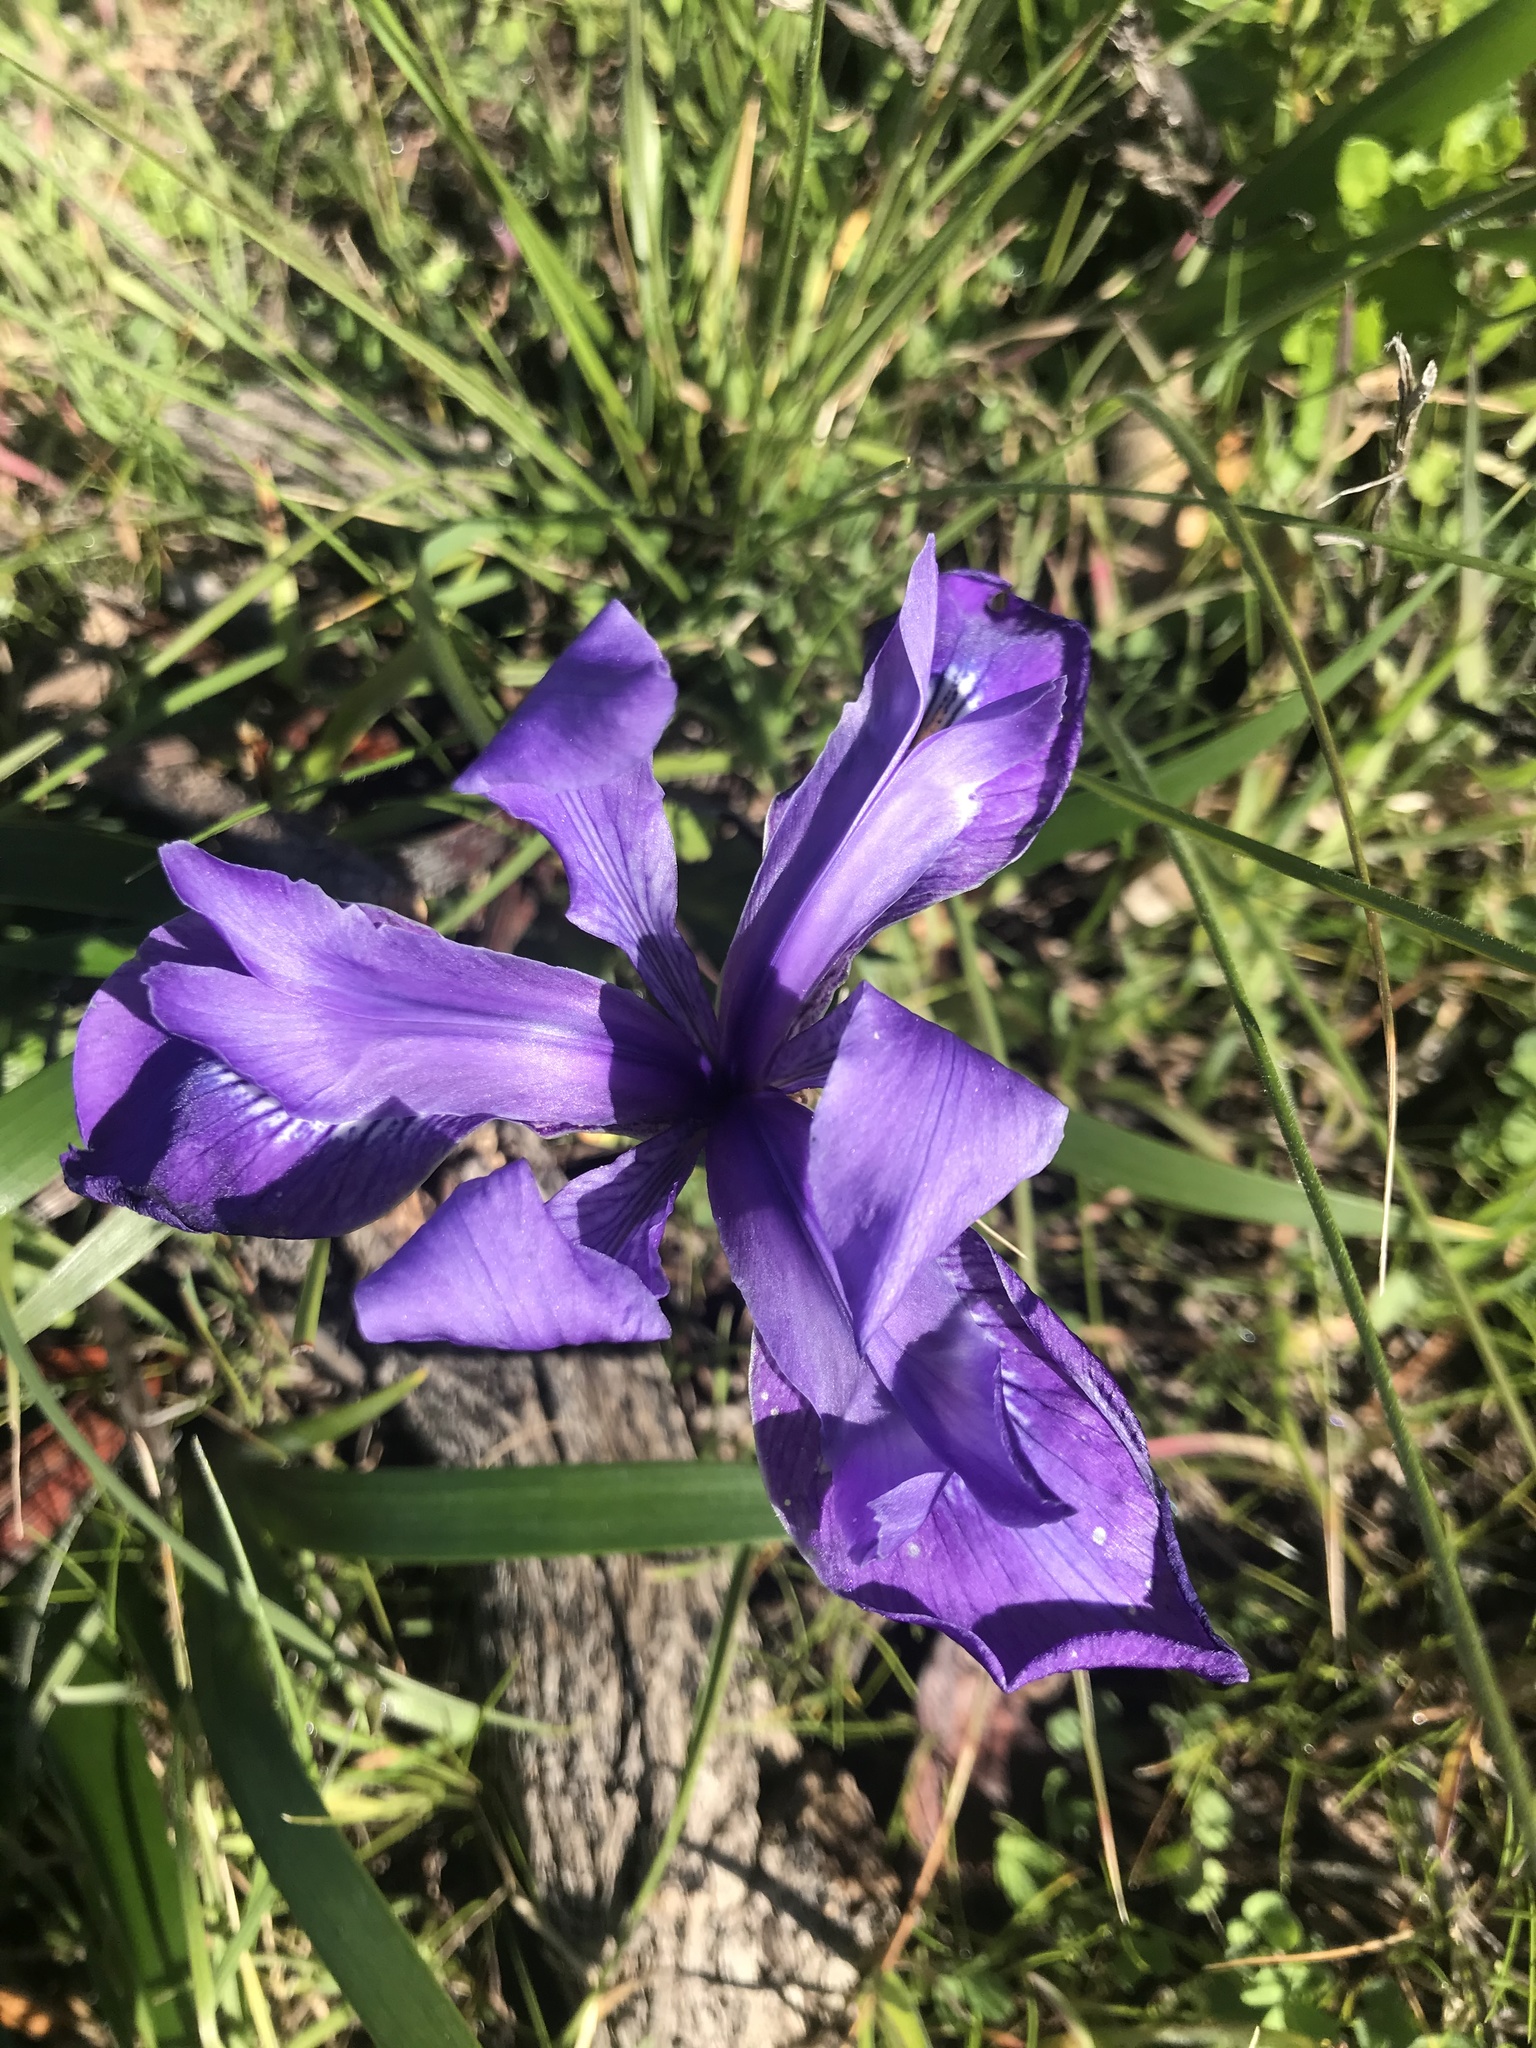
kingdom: Plantae
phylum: Tracheophyta
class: Liliopsida
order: Asparagales
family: Iridaceae
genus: Iris
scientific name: Iris douglasiana
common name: Marin iris
